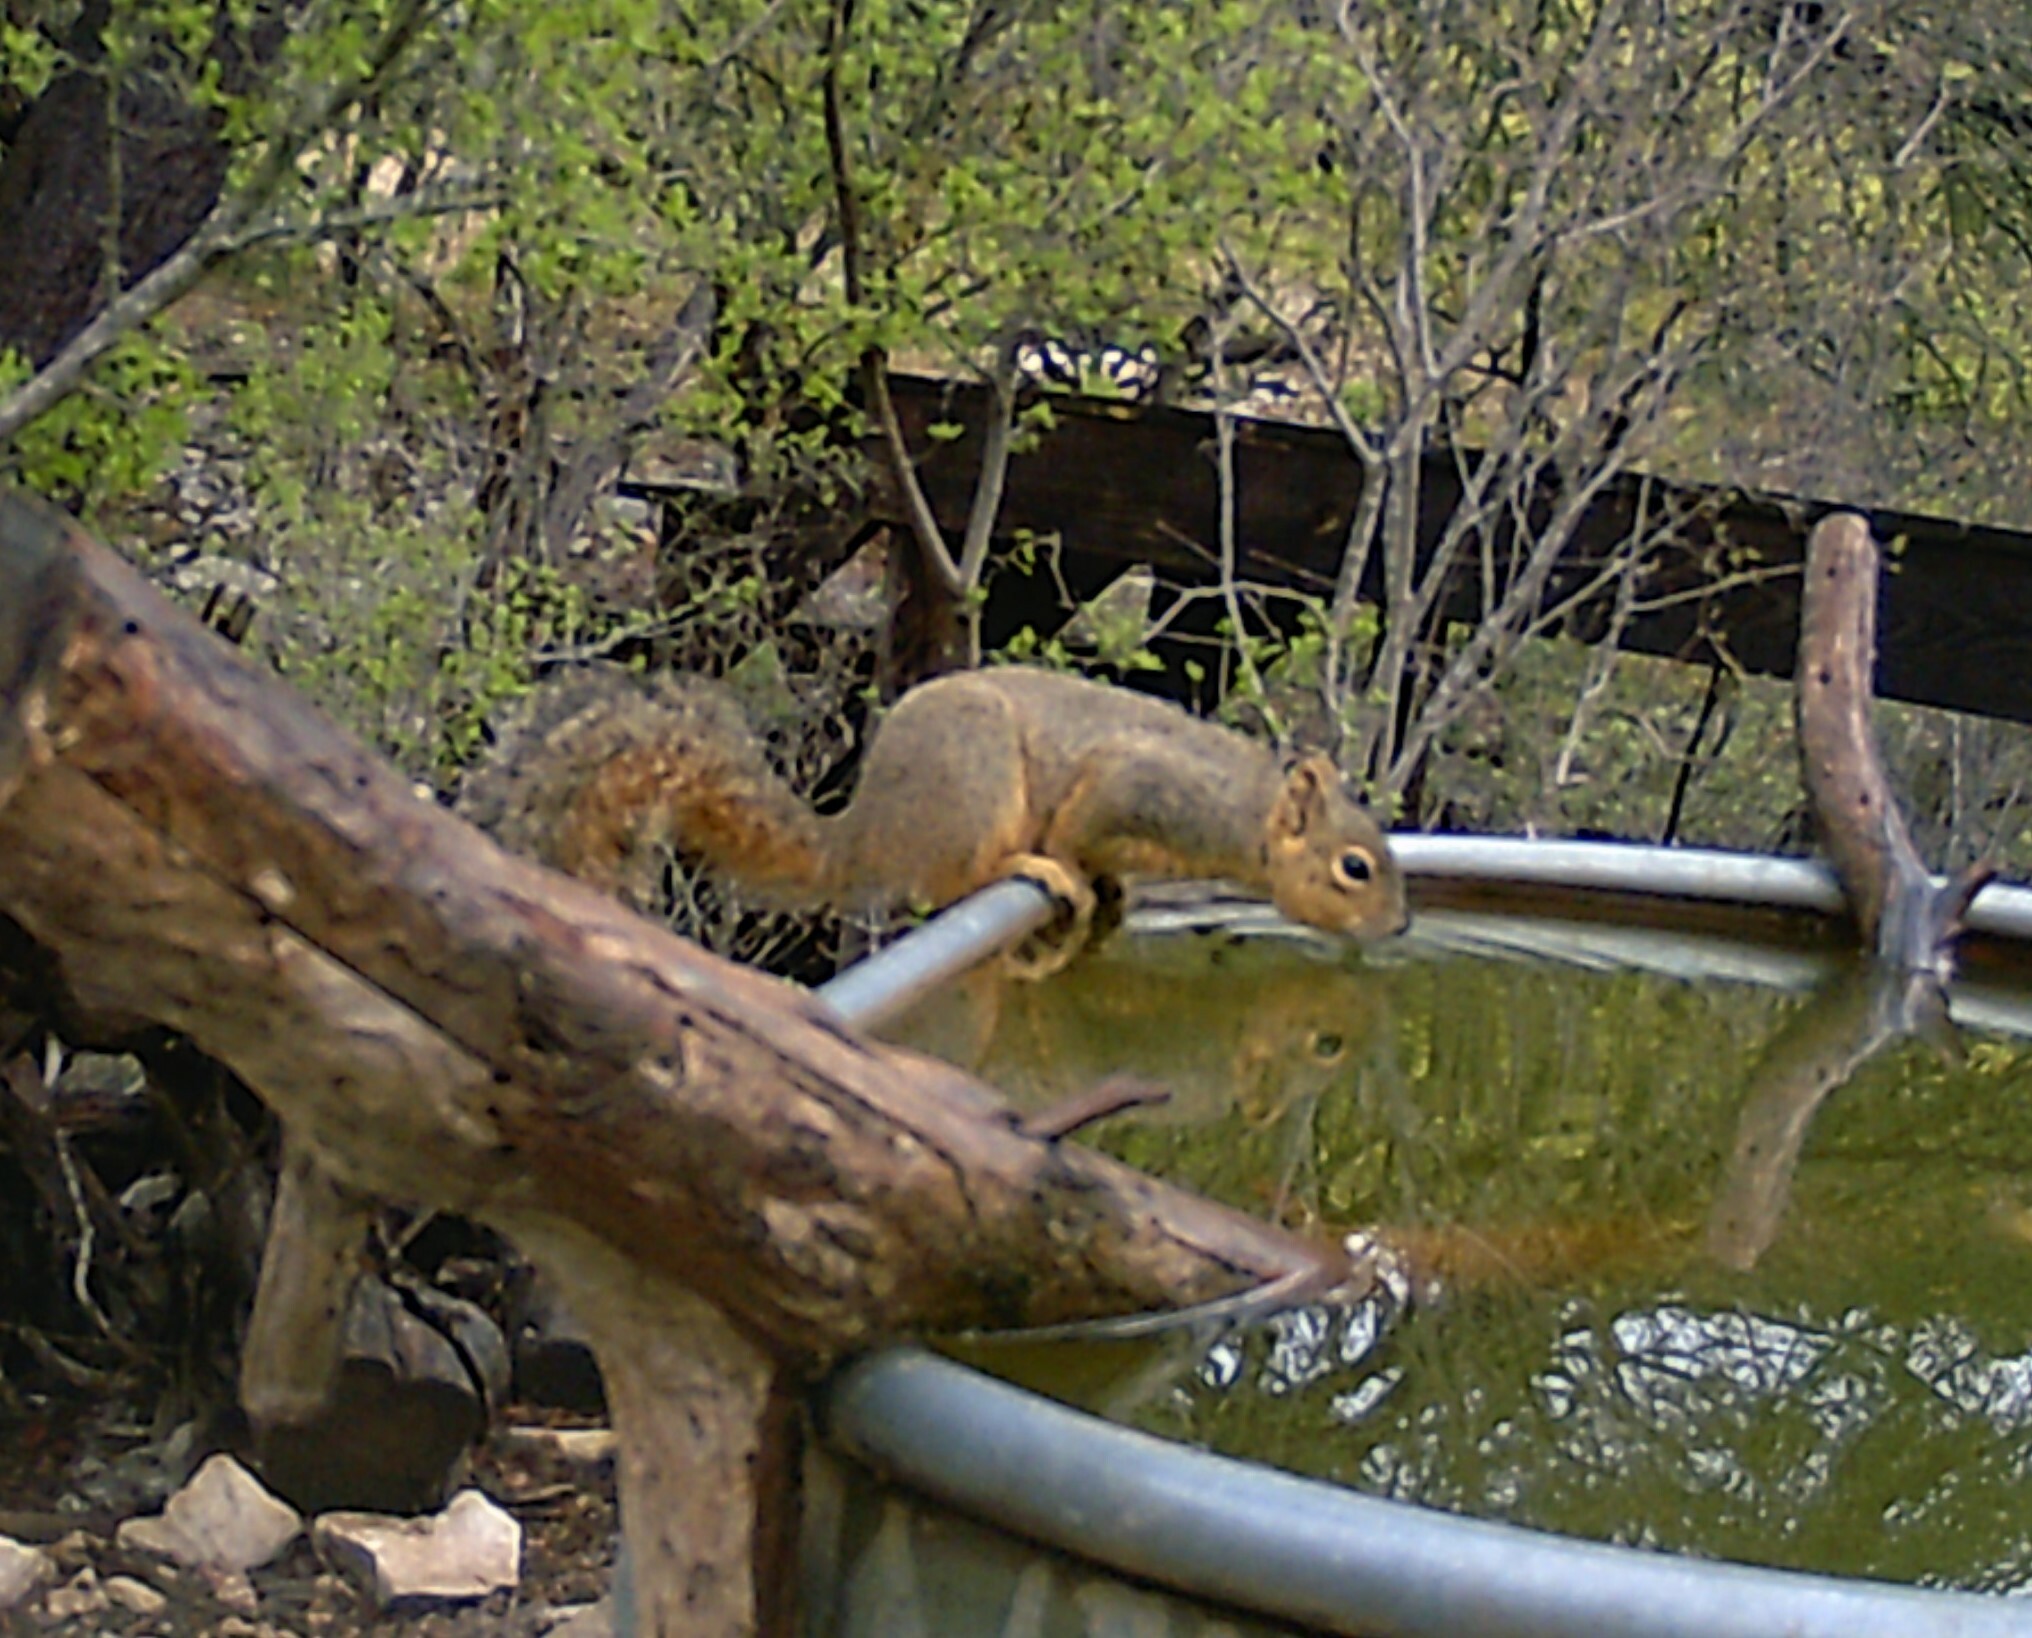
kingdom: Animalia
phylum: Chordata
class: Mammalia
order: Rodentia
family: Sciuridae
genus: Sciurus
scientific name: Sciurus niger
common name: Fox squirrel
